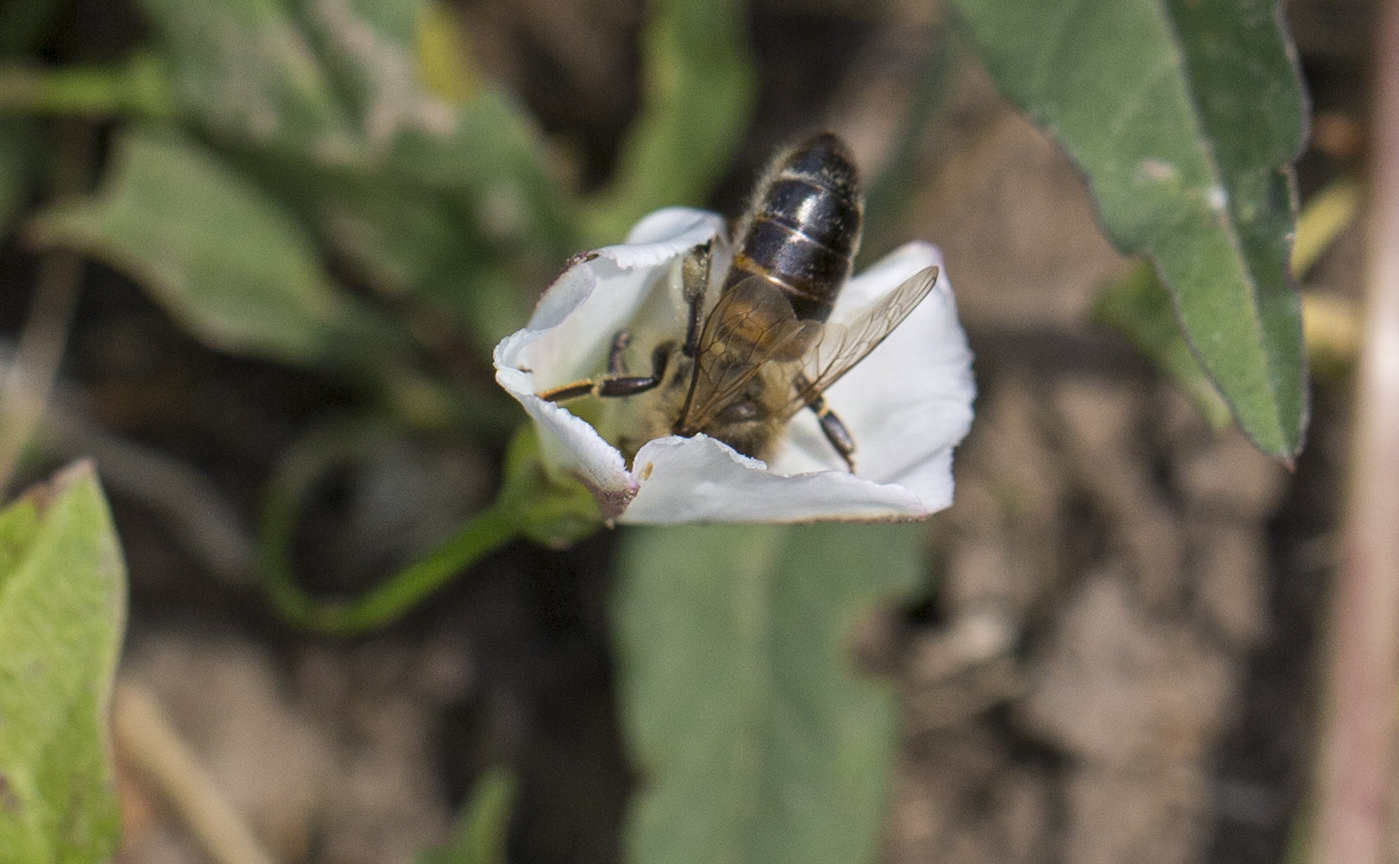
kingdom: Animalia
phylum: Arthropoda
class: Insecta
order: Hymenoptera
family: Apidae
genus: Apis
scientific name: Apis mellifera
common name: Honey bee
